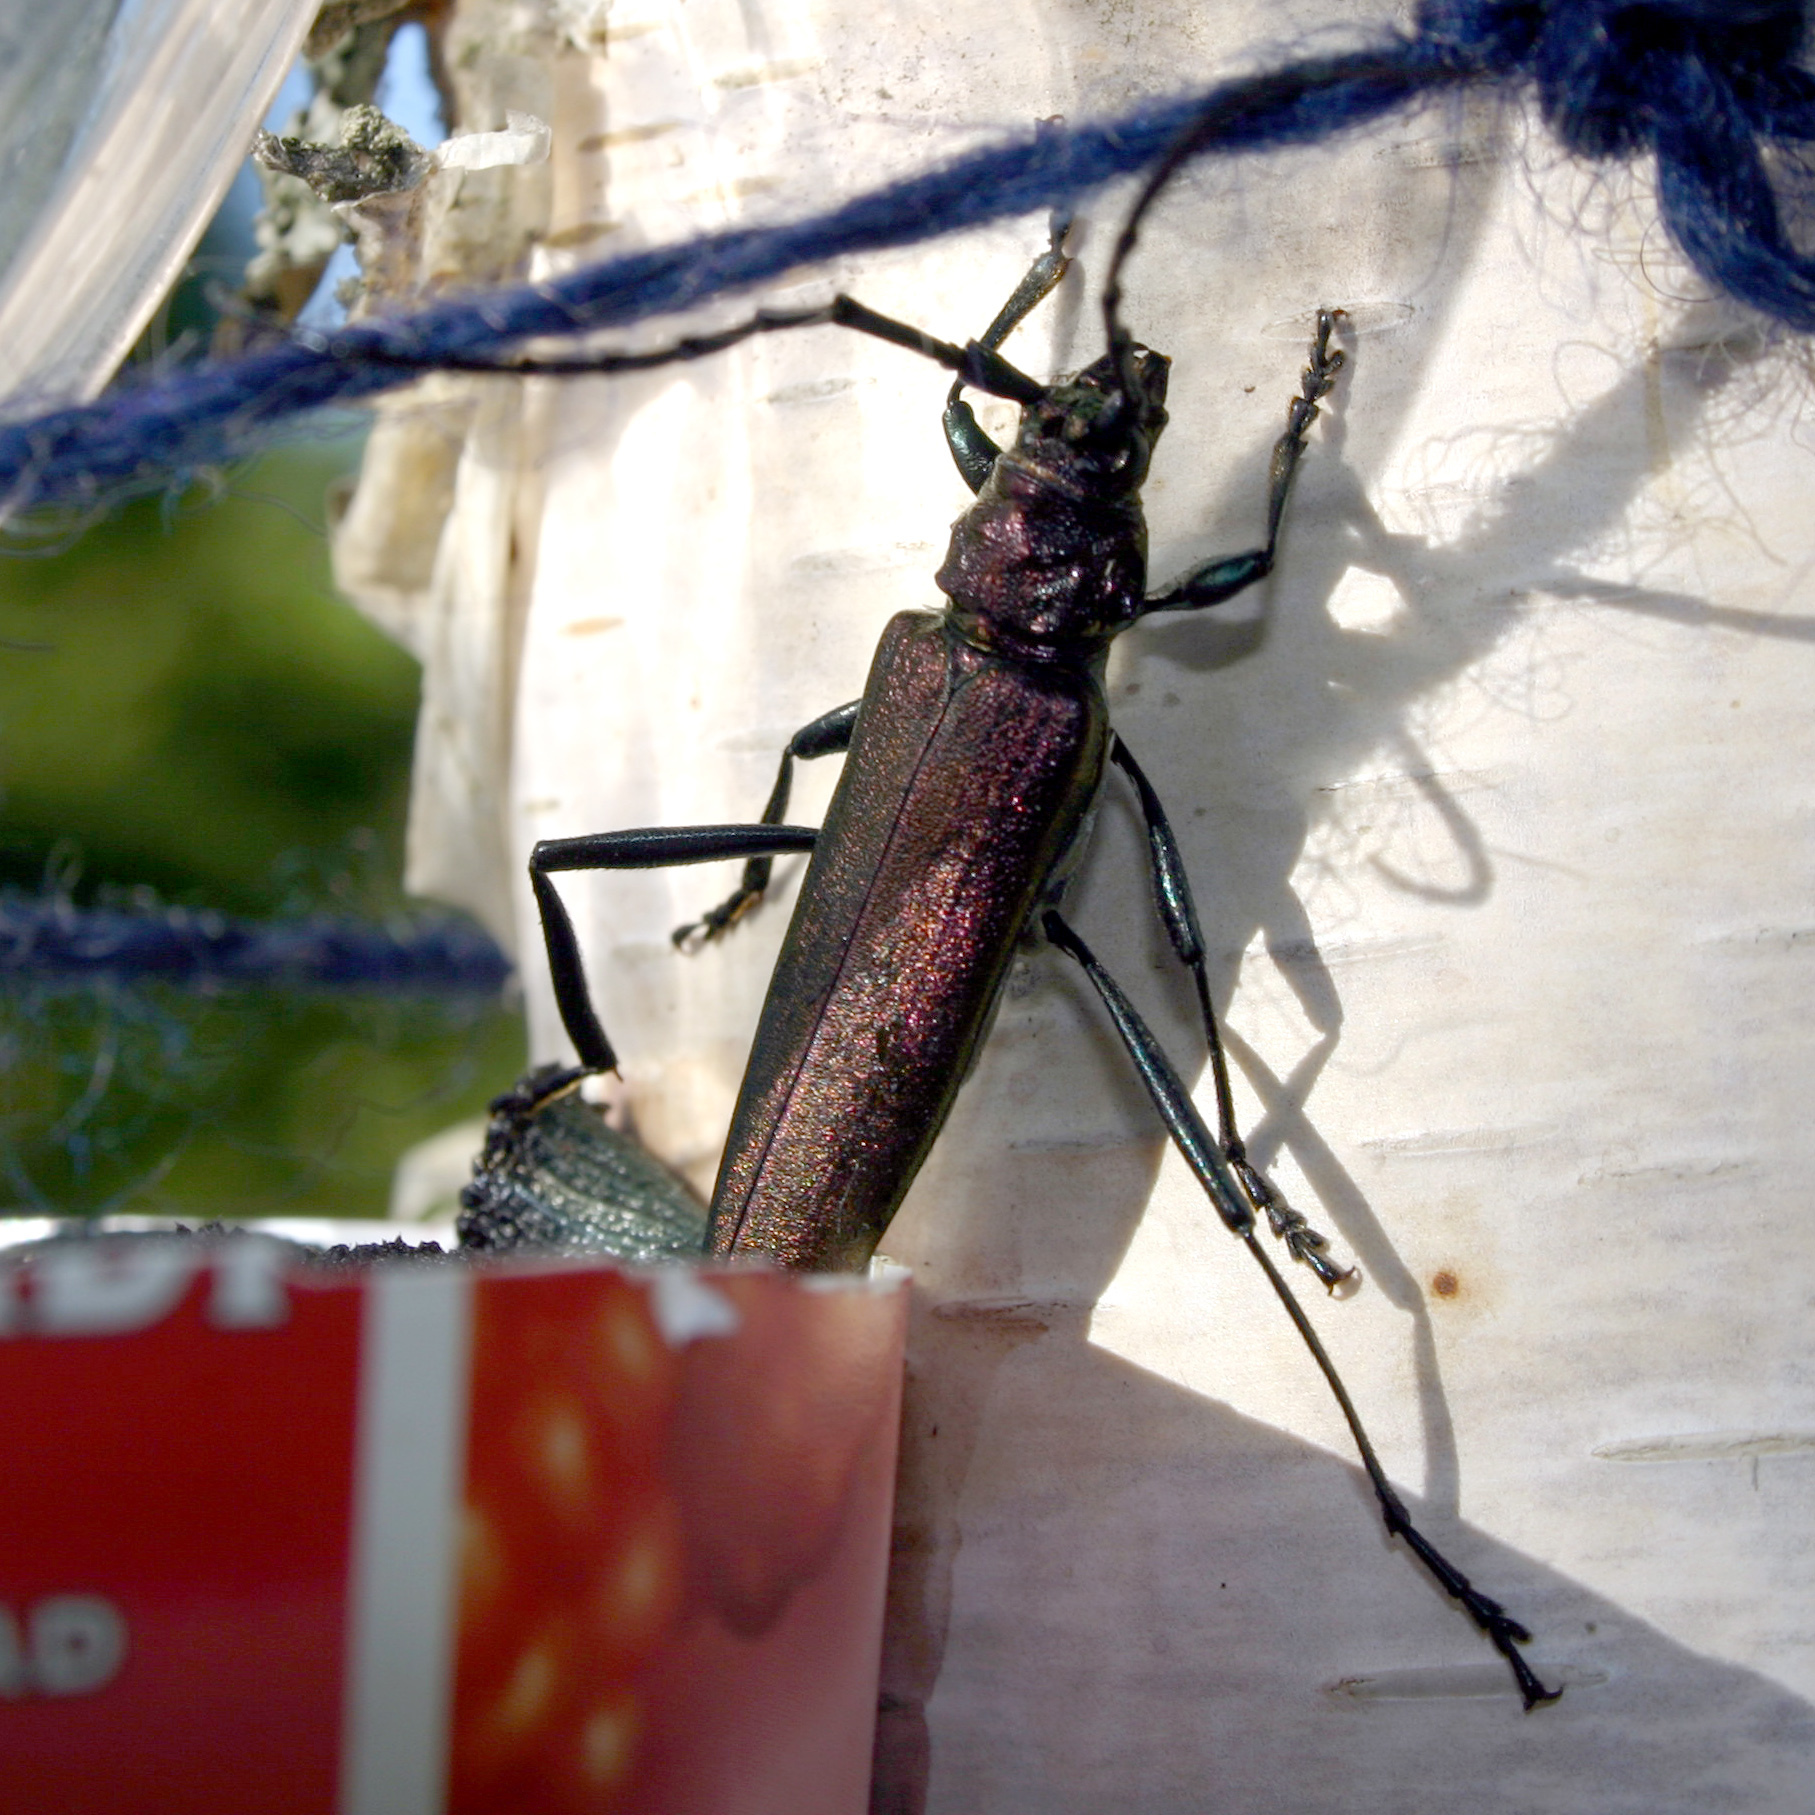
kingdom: Animalia
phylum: Arthropoda
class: Insecta
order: Coleoptera
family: Cerambycidae
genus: Aromia
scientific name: Aromia moschata
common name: Musk beetle
